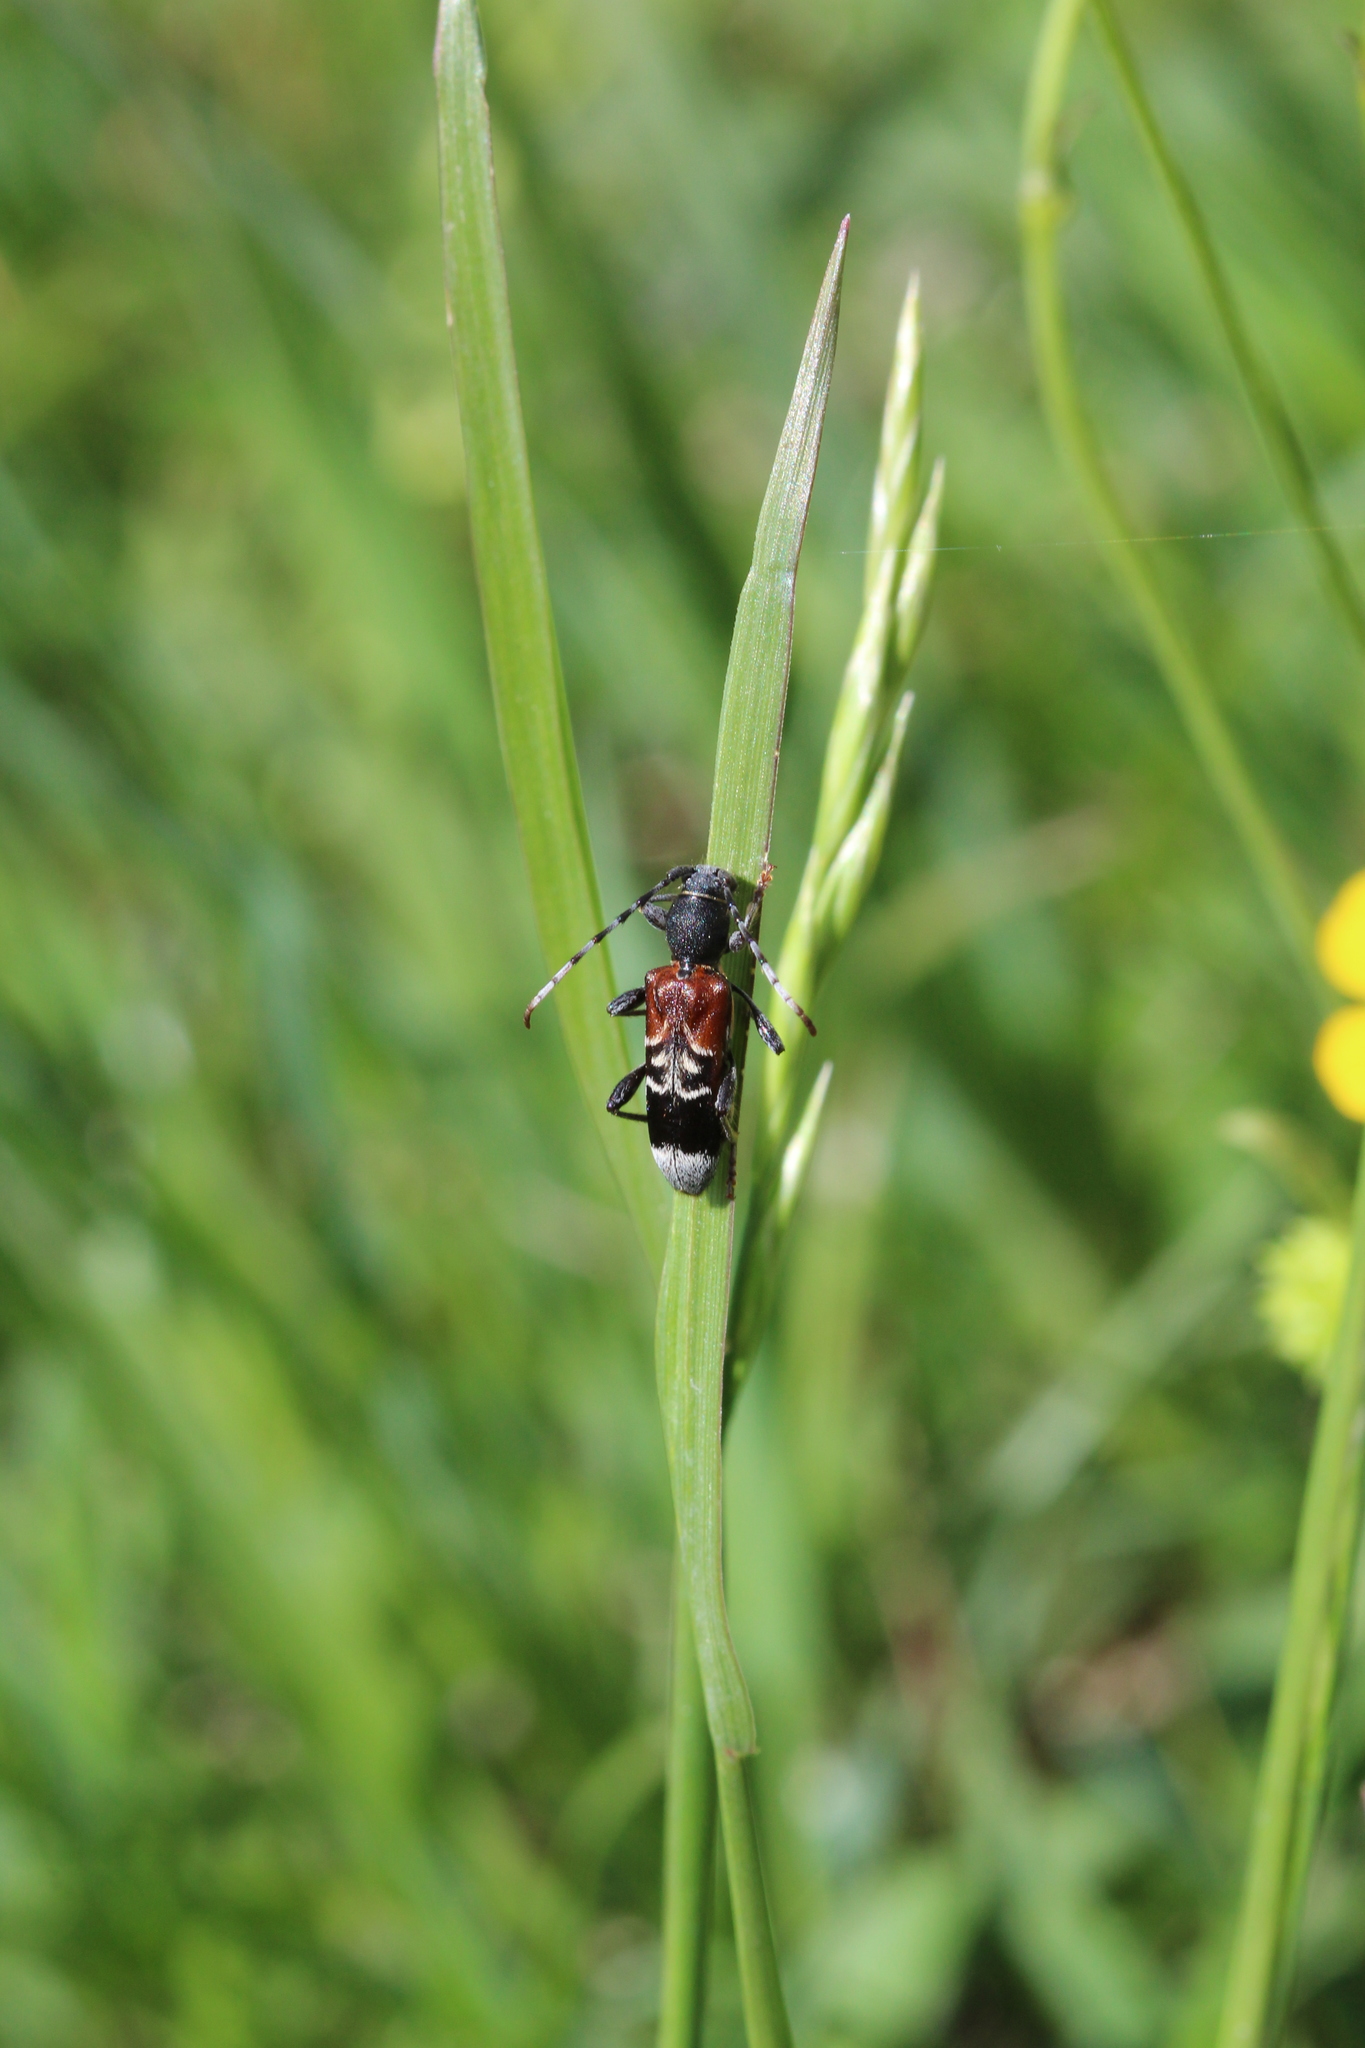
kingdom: Animalia
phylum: Arthropoda
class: Insecta
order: Coleoptera
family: Cerambycidae
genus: Anaglyptus
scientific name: Anaglyptus mysticus
